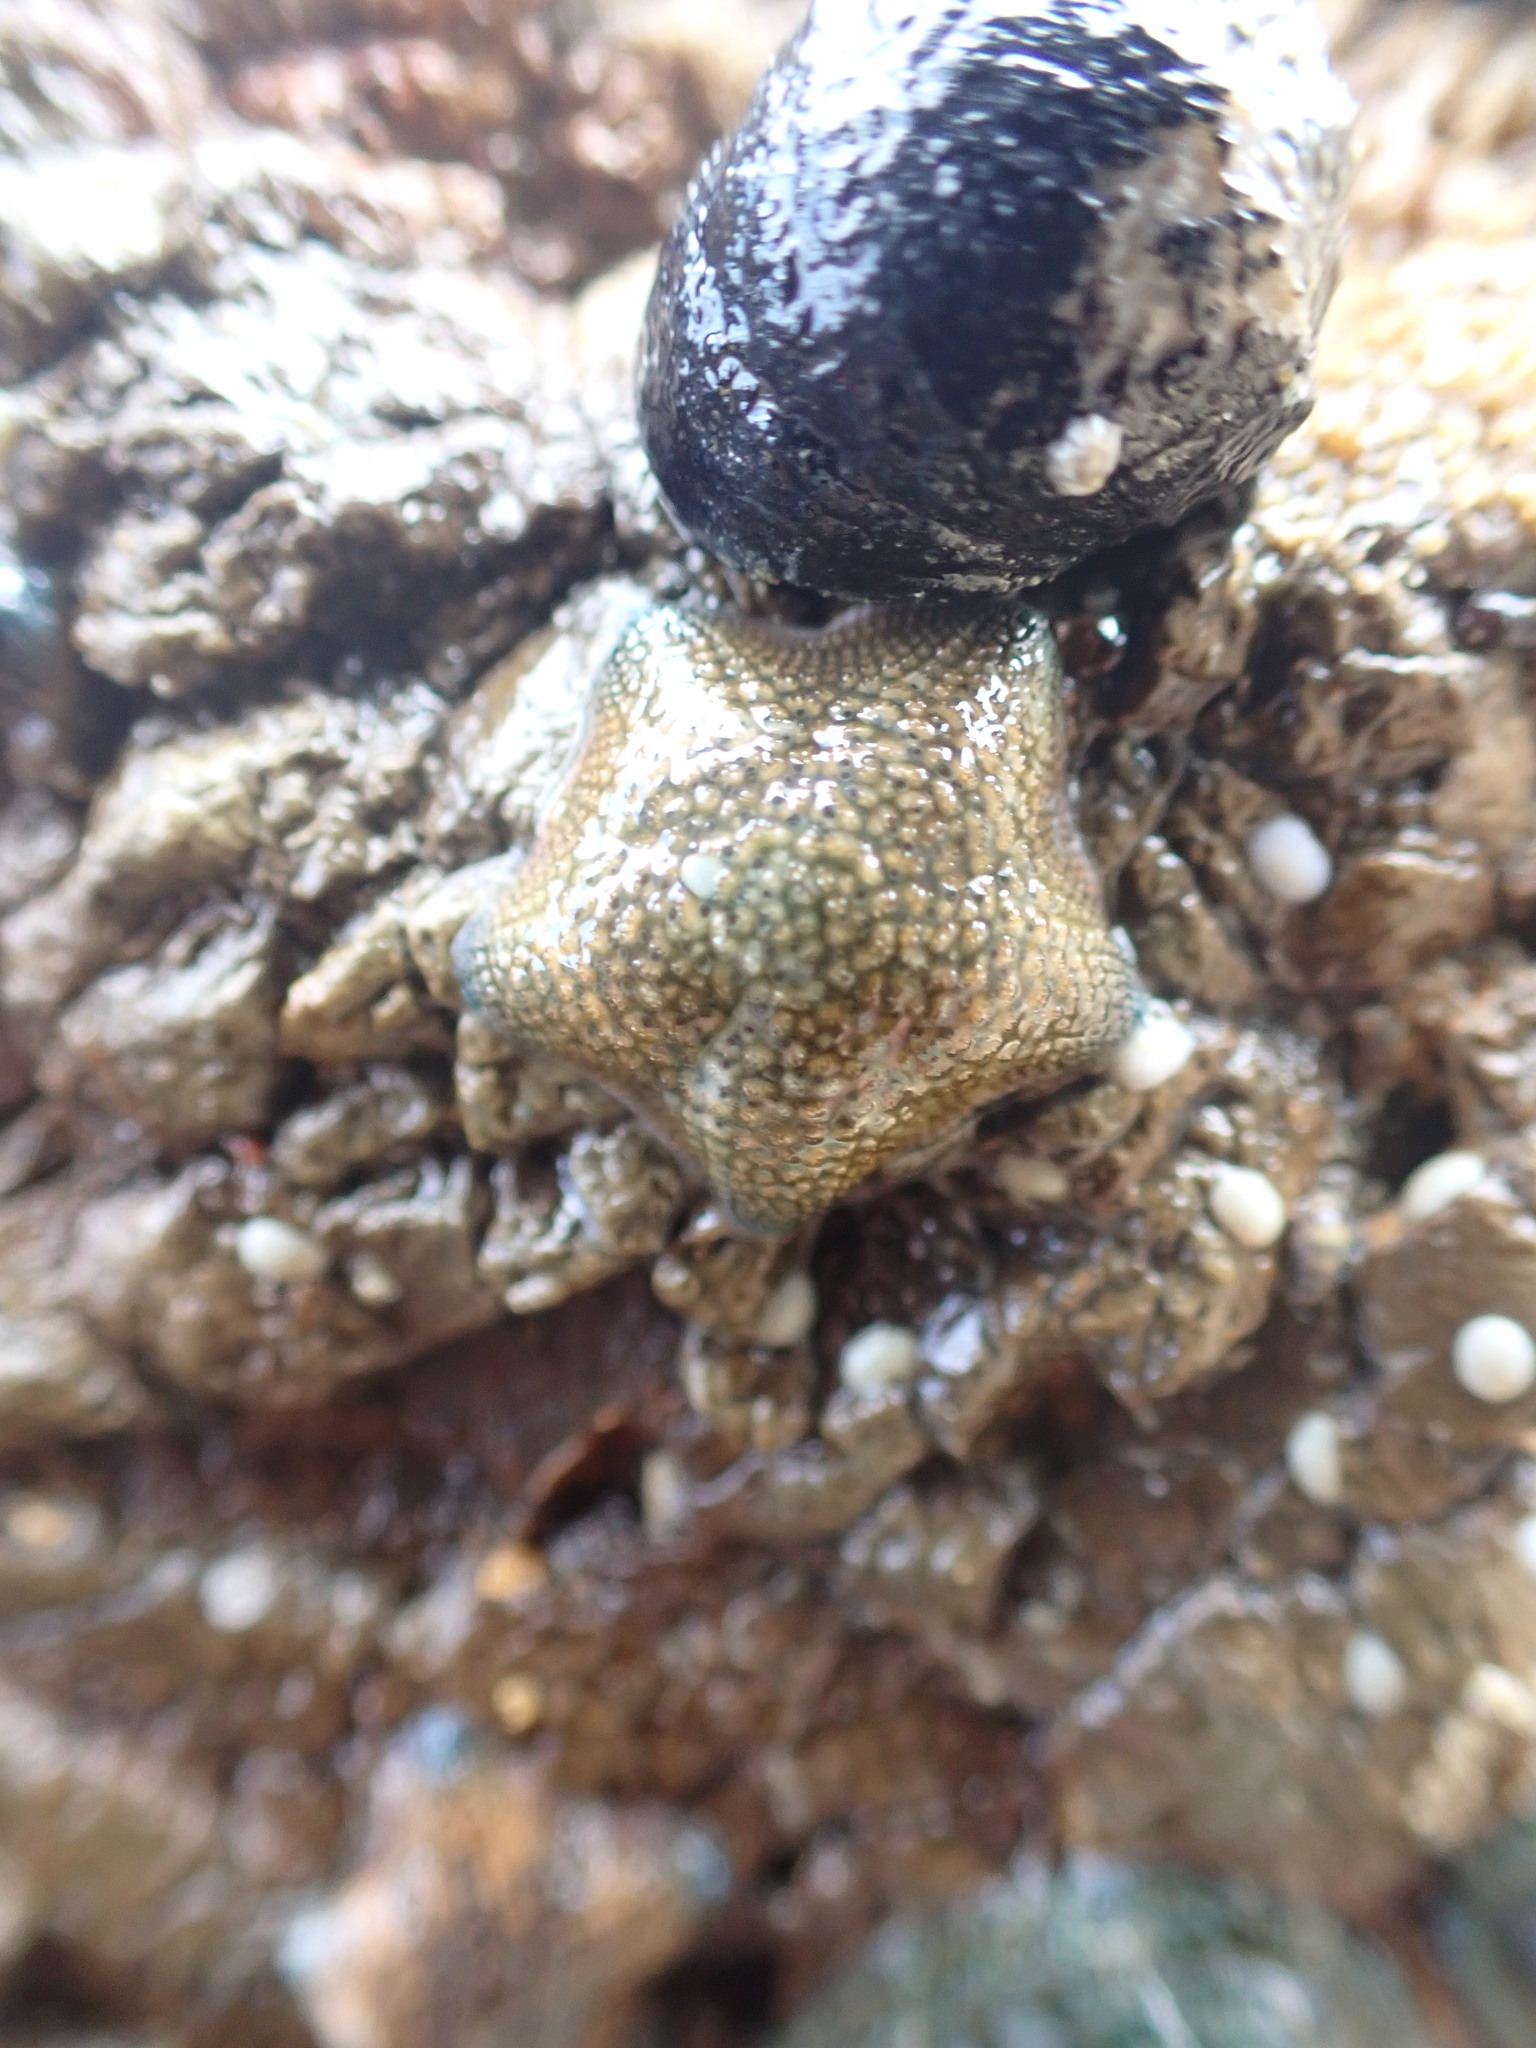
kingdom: Animalia
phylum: Echinodermata
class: Asteroidea
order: Valvatida
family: Asterinidae
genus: Patiriella
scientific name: Patiriella regularis
